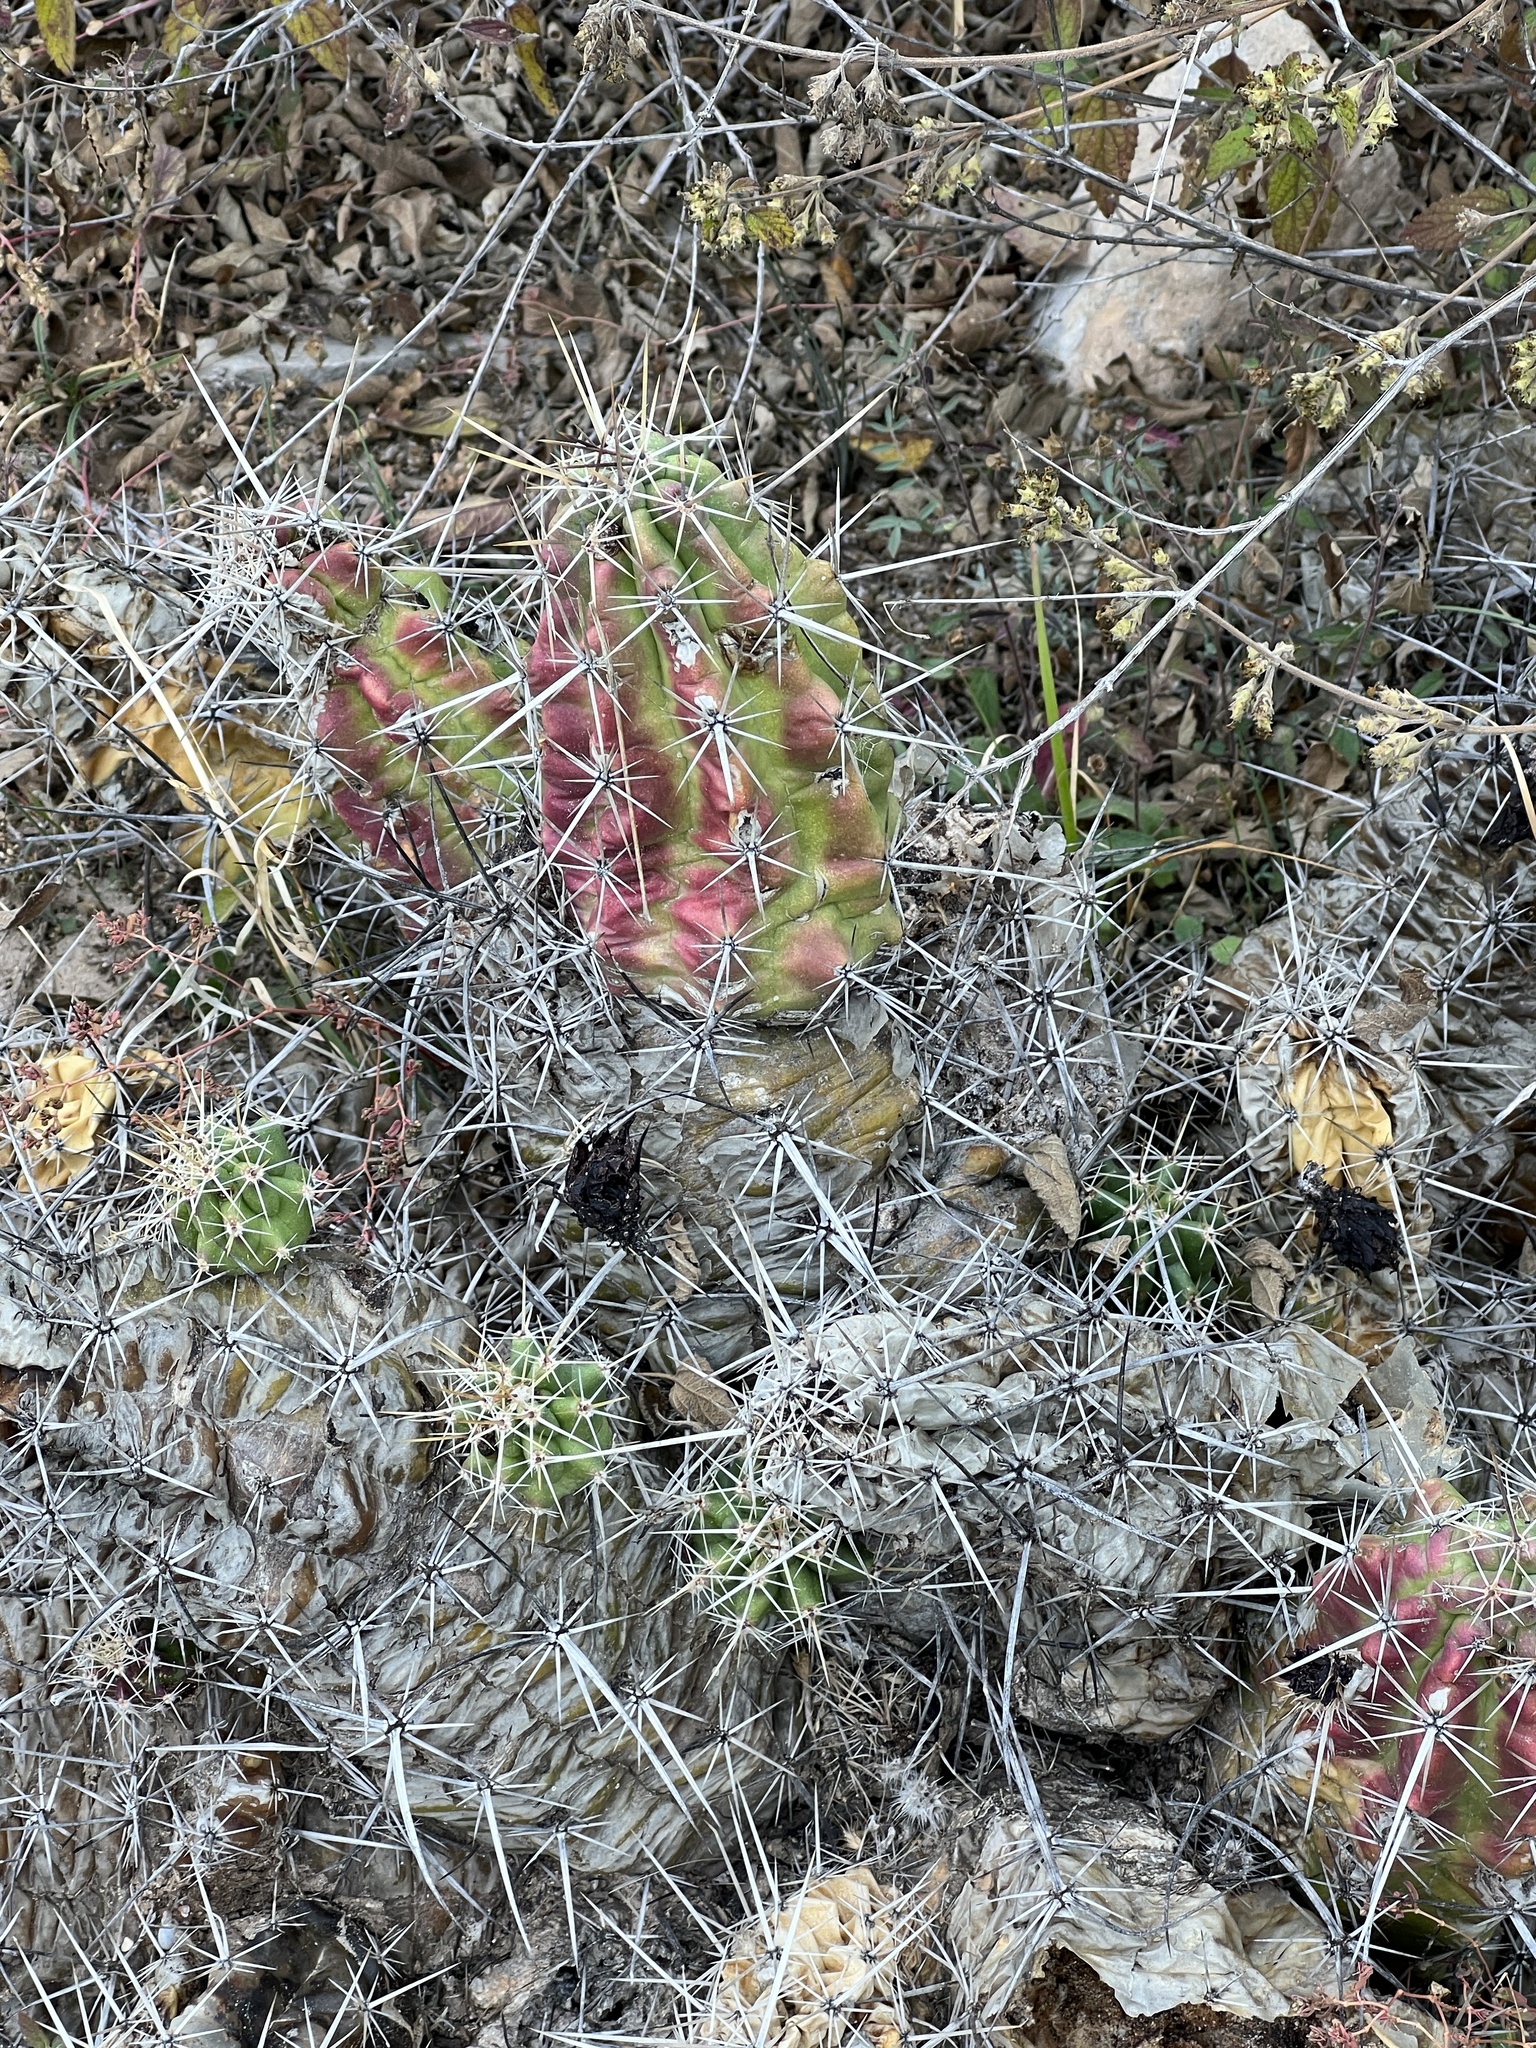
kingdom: Plantae
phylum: Tracheophyta
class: Magnoliopsida
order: Caryophyllales
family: Cactaceae
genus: Echinocereus
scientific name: Echinocereus enneacanthus
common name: Pitaya
